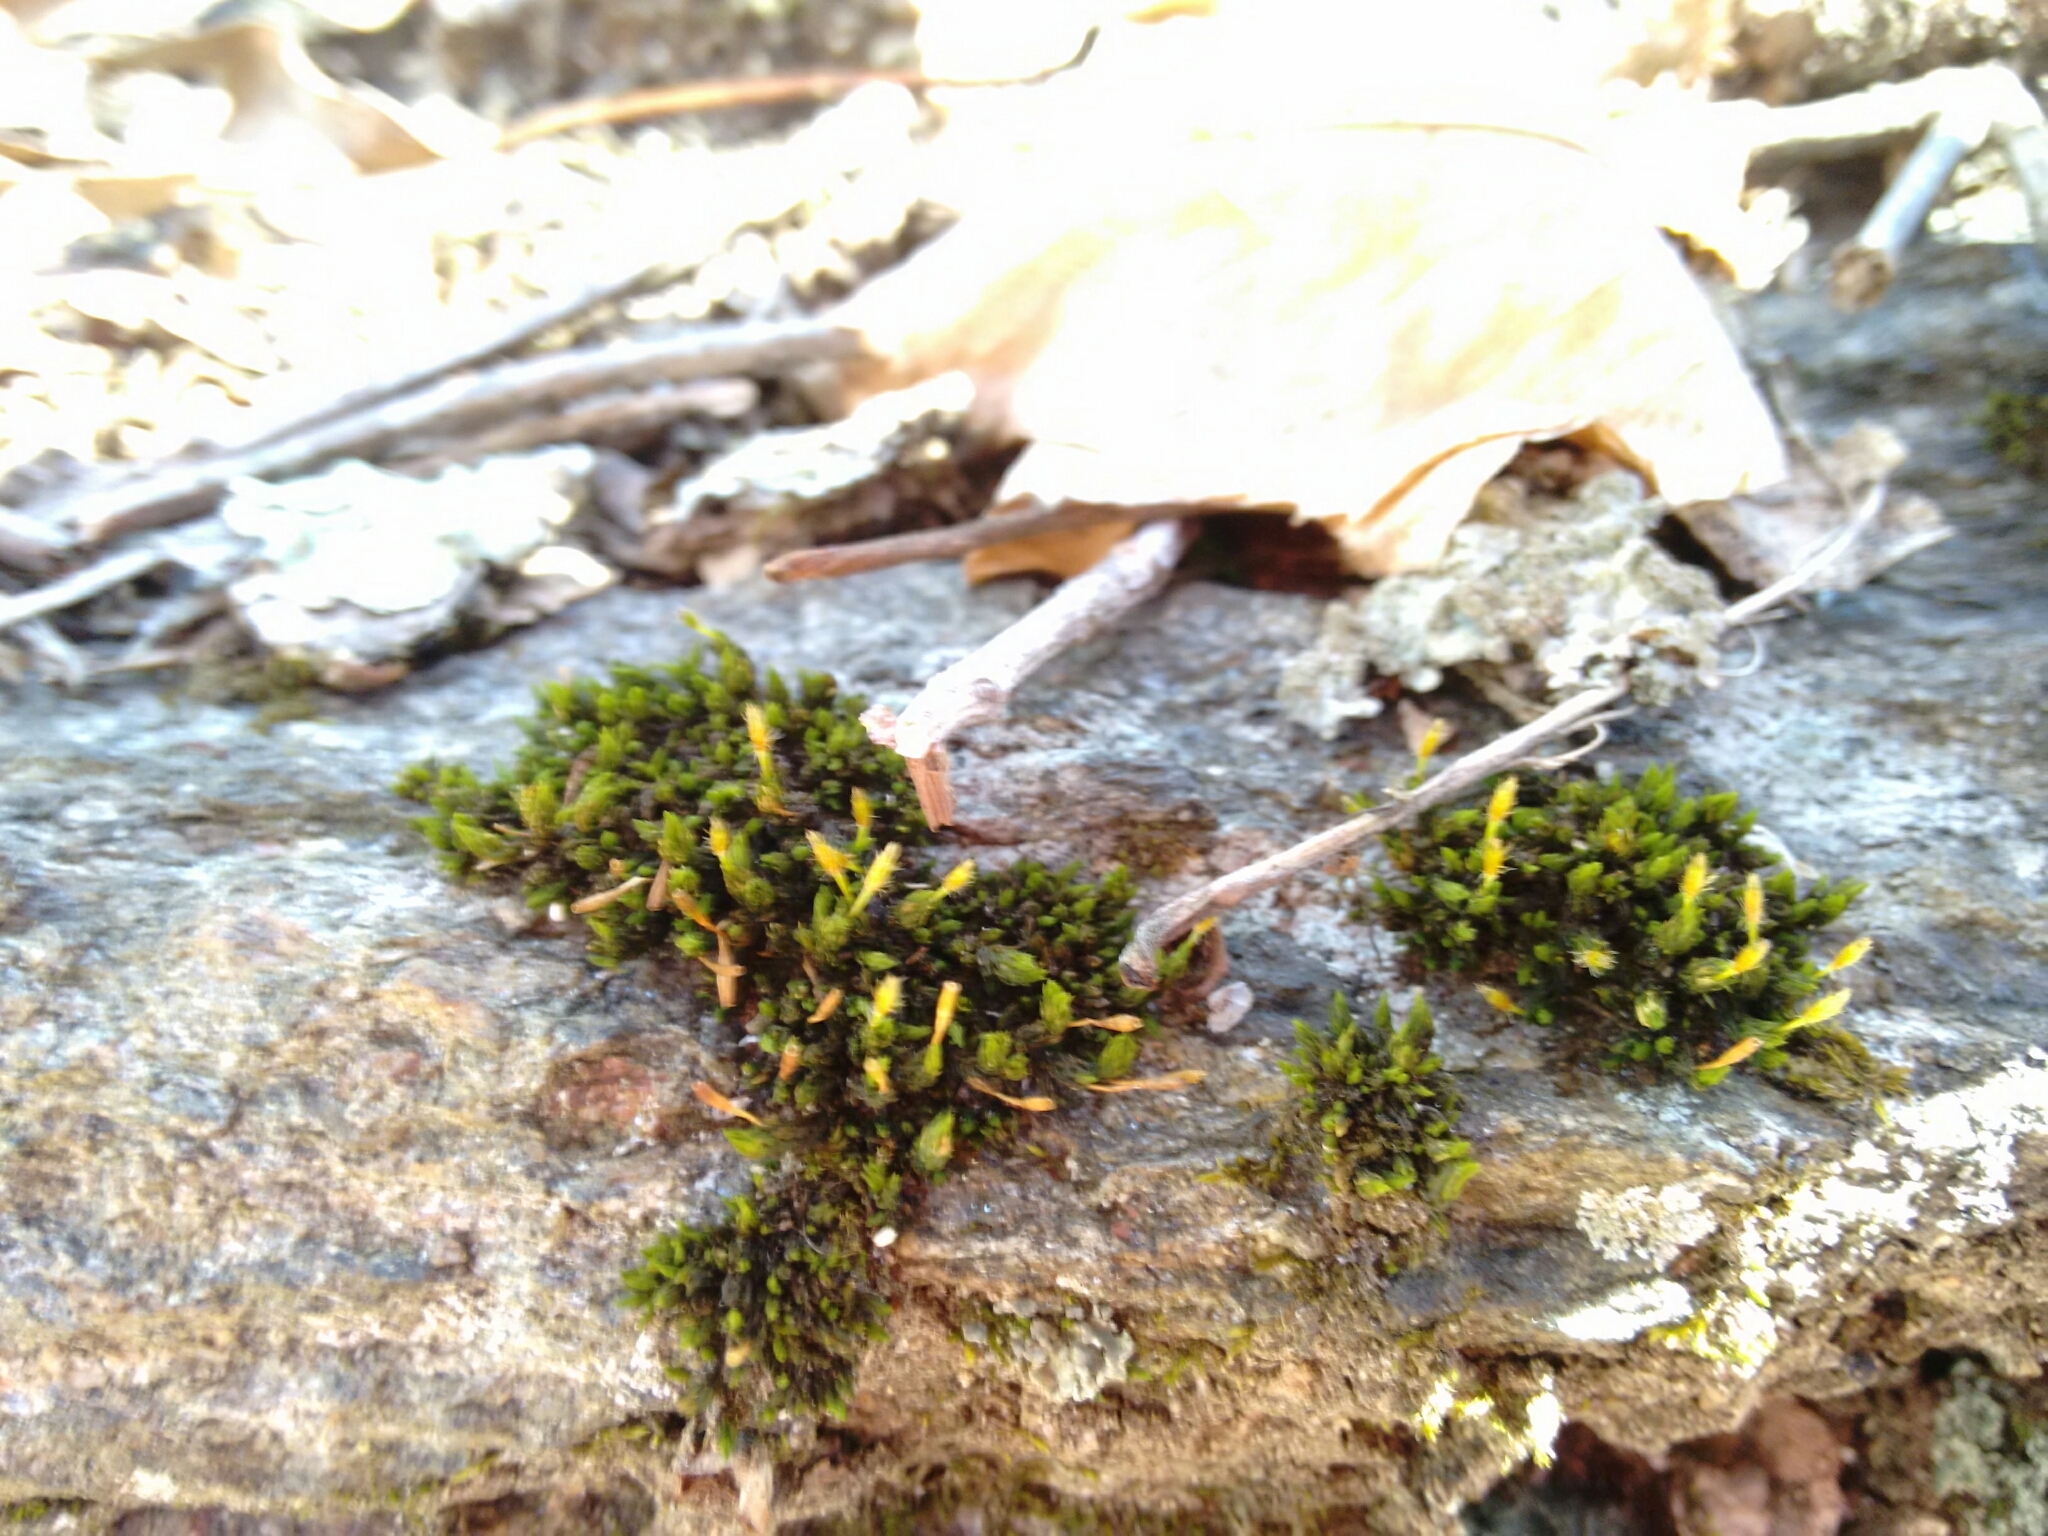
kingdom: Plantae
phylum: Bryophyta
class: Bryopsida
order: Orthotrichales
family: Orthotrichaceae
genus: Ulota
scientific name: Ulota hutchinsiae
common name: Hutchins' pincushion
